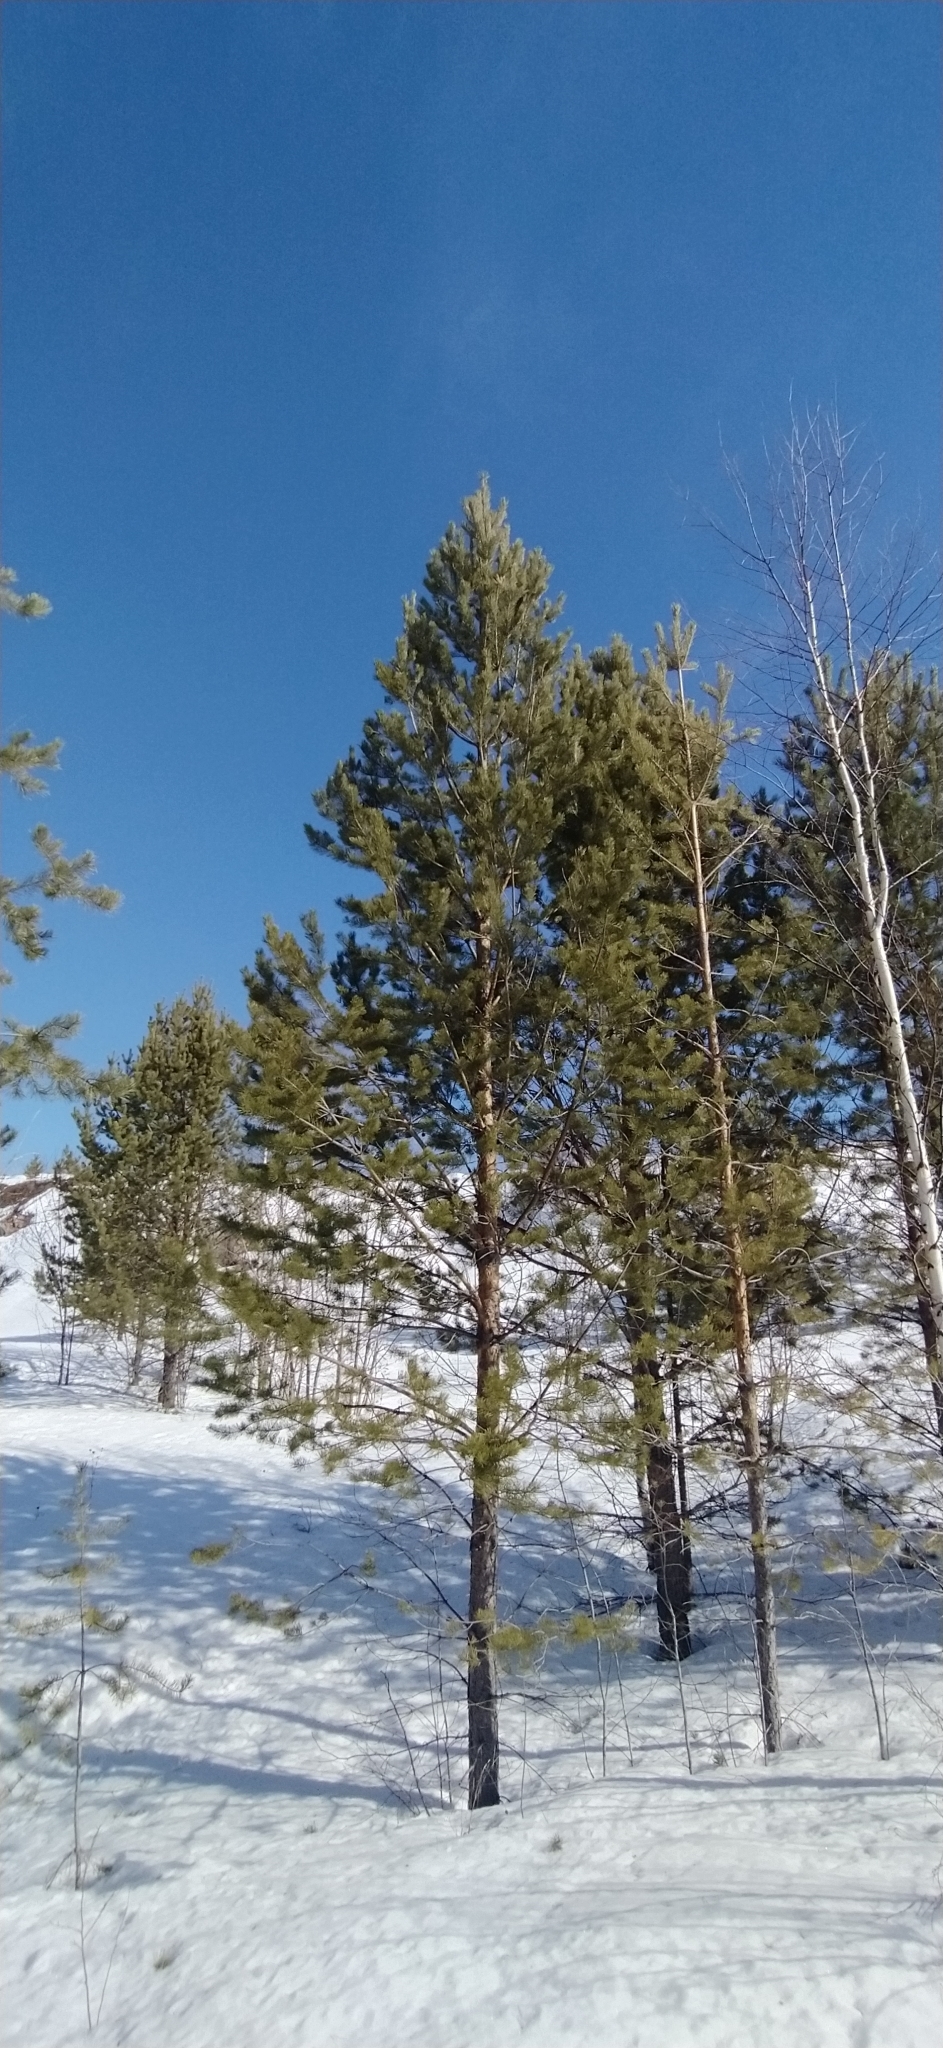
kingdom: Plantae
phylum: Tracheophyta
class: Pinopsida
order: Pinales
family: Pinaceae
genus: Pinus
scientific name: Pinus sylvestris
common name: Scots pine
